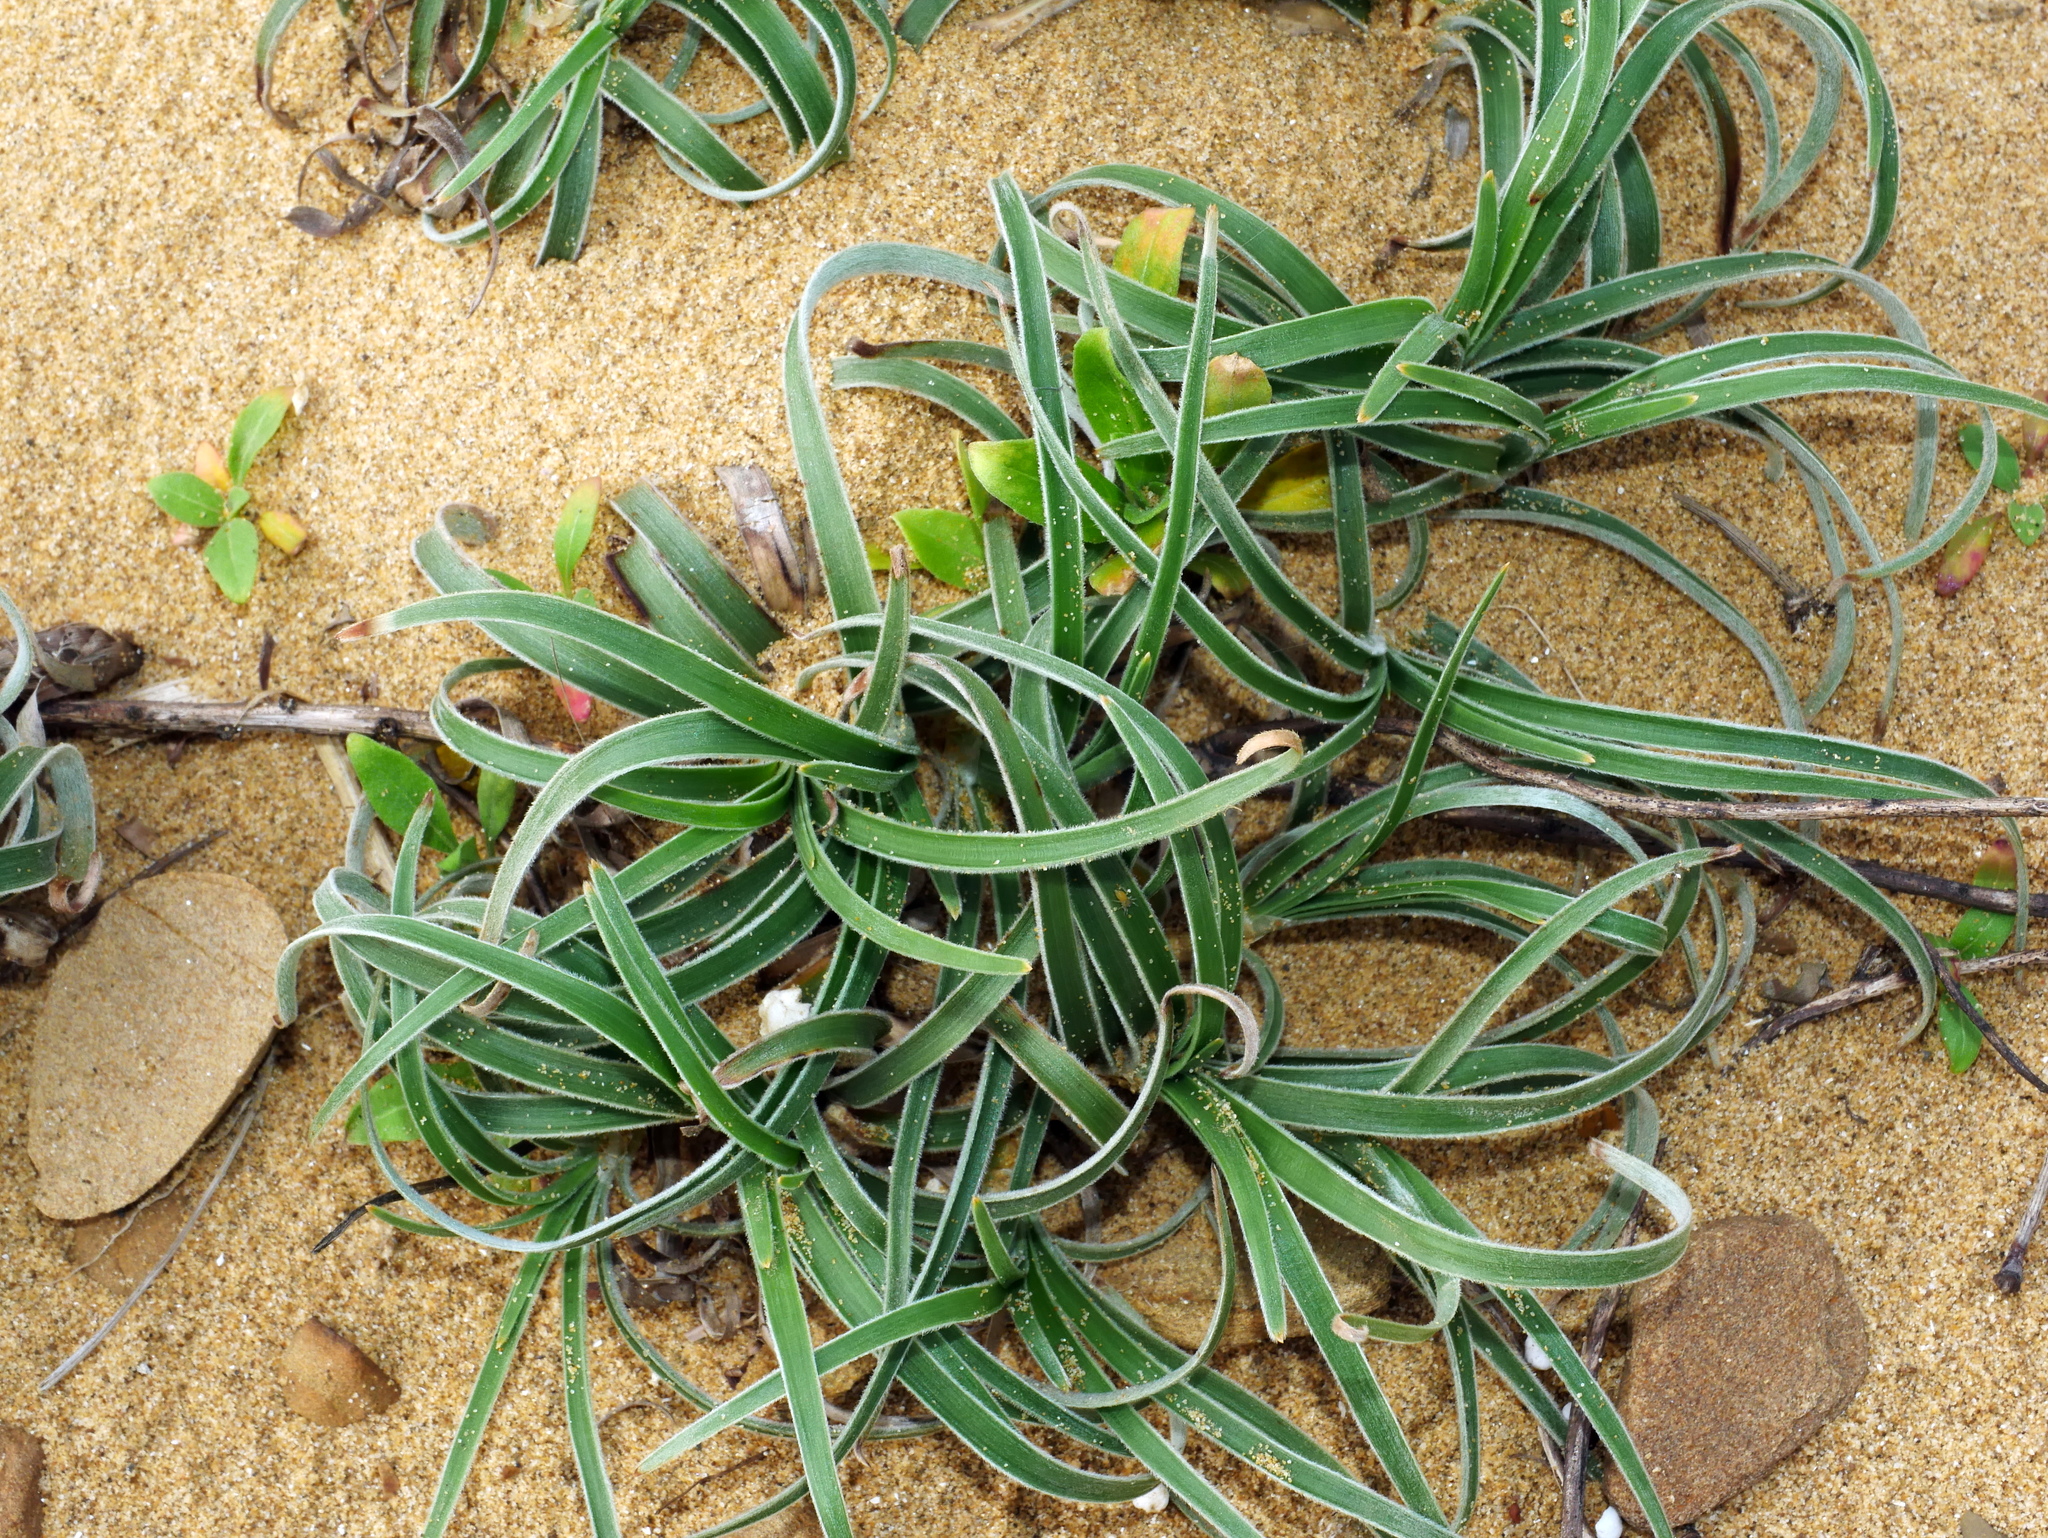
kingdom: Plantae
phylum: Tracheophyta
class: Liliopsida
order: Poales
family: Cyperaceae
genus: Fimbristylis
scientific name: Fimbristylis sericea
